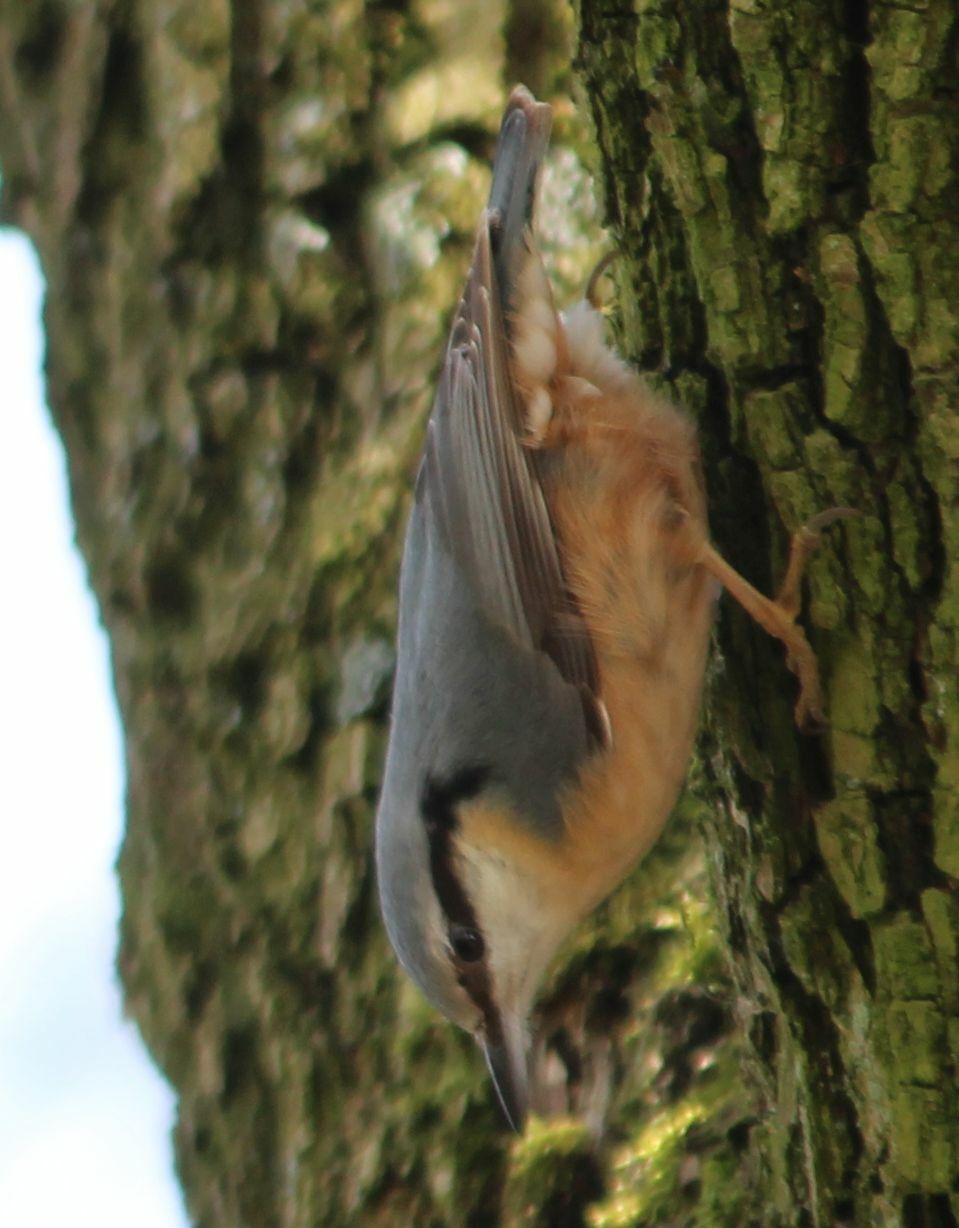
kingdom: Animalia
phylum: Chordata
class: Aves
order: Passeriformes
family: Sittidae
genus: Sitta
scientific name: Sitta europaea
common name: Eurasian nuthatch
